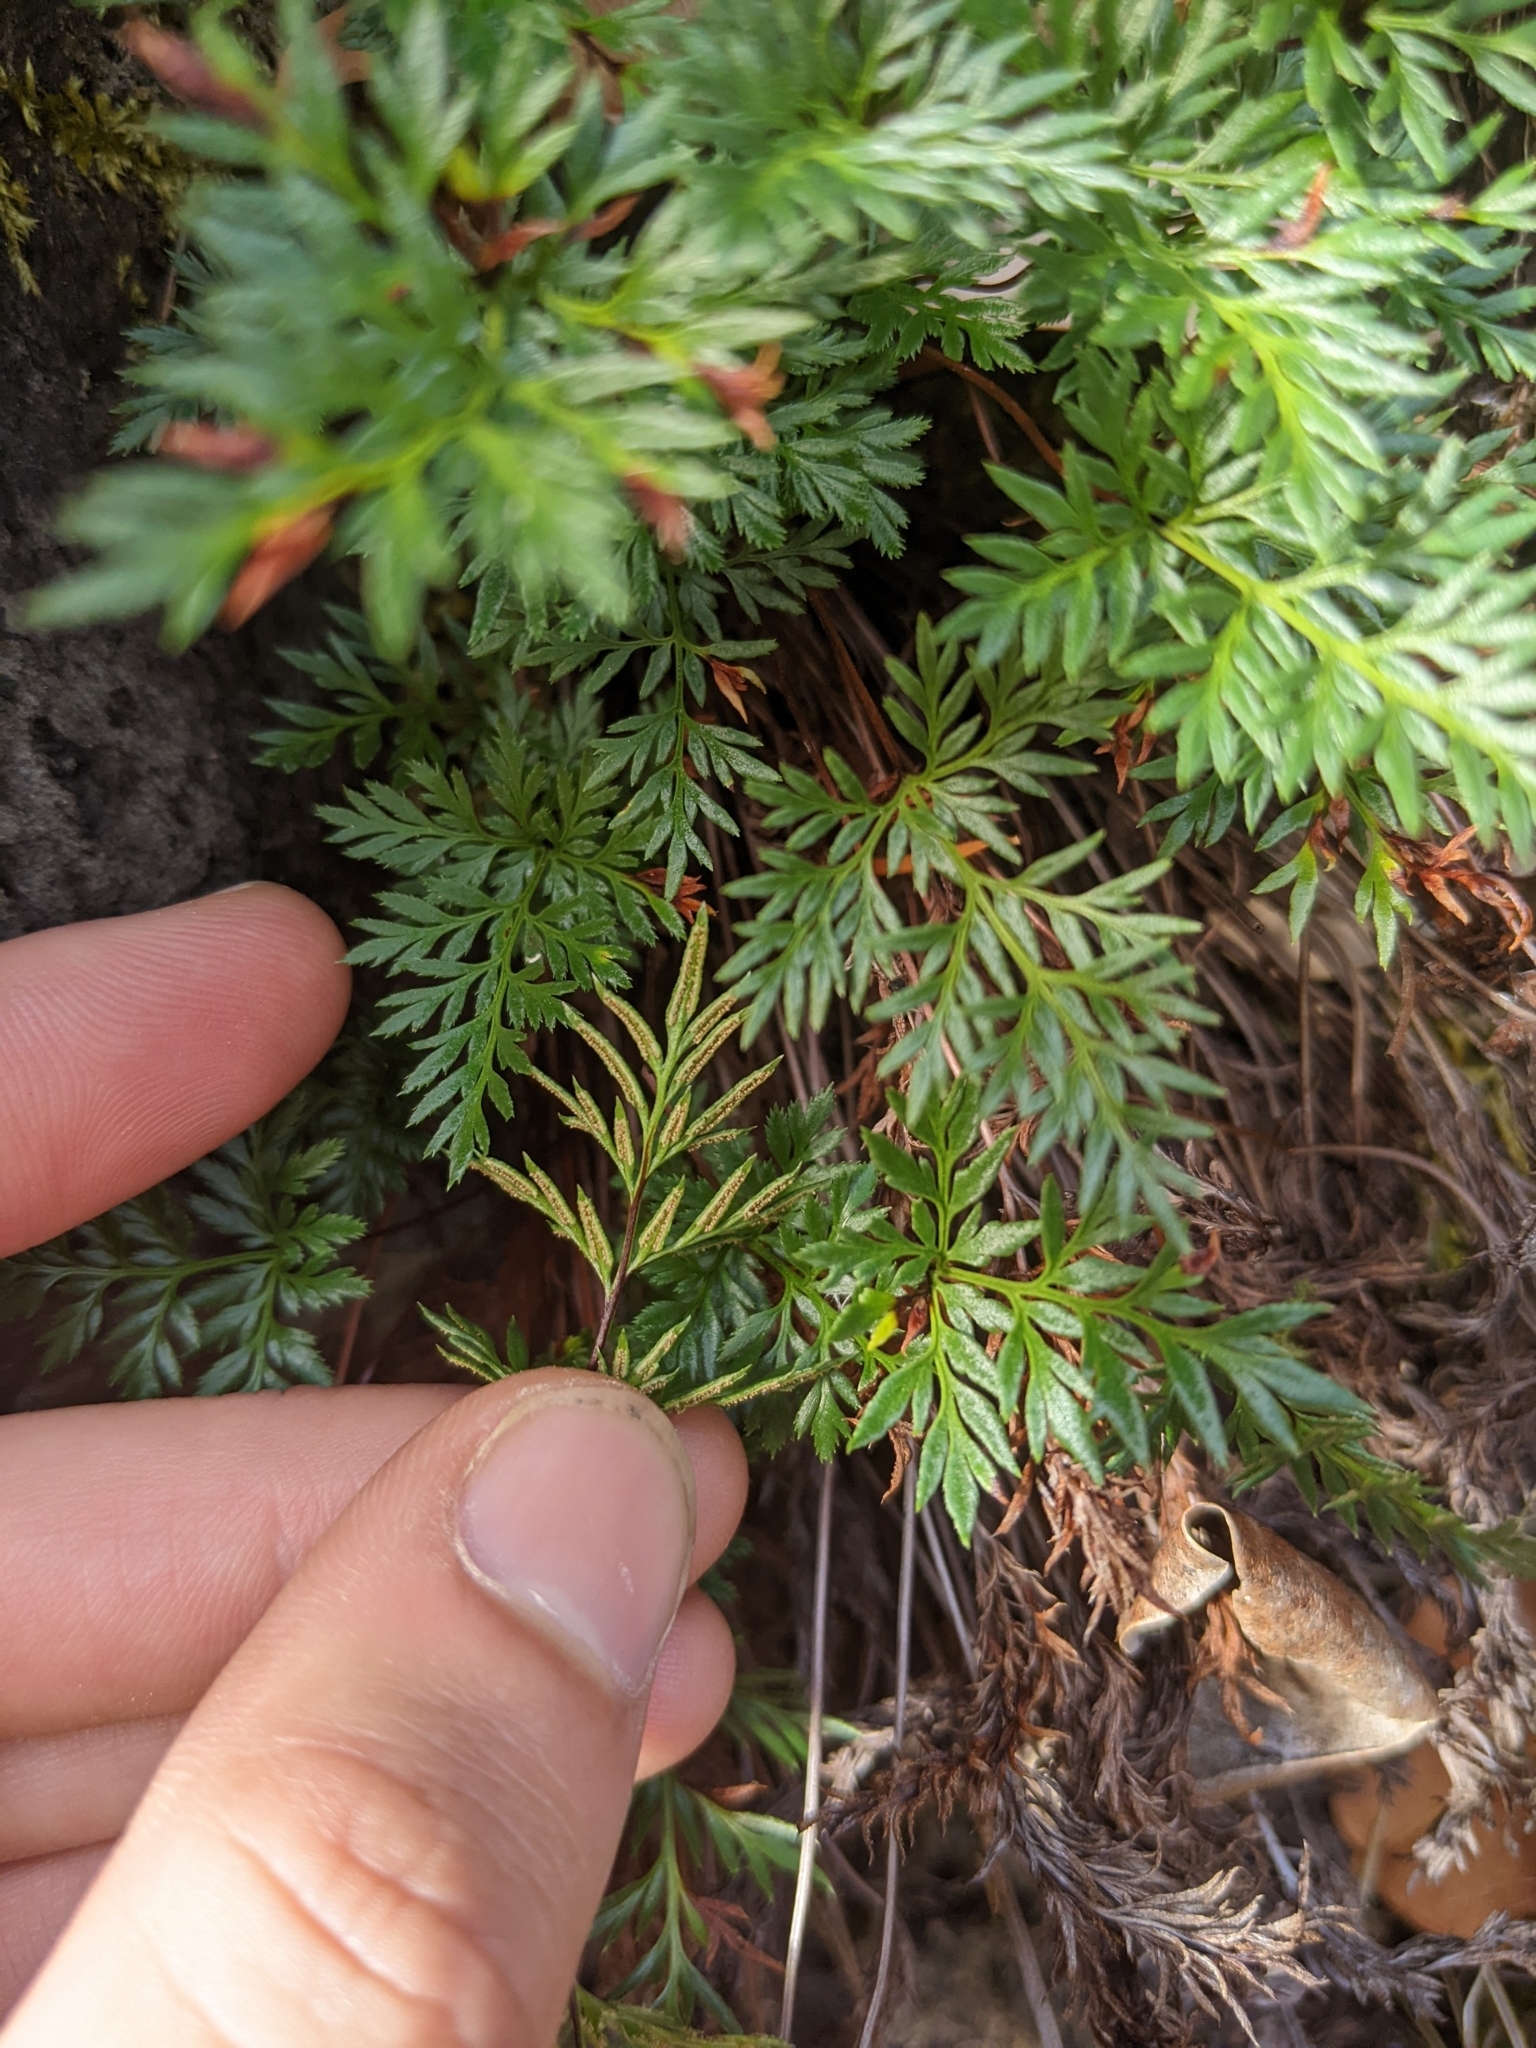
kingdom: Plantae
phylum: Tracheophyta
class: Polypodiopsida
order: Polypodiales
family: Pteridaceae
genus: Aspidotis
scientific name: Aspidotis densa
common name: Indian's dream
